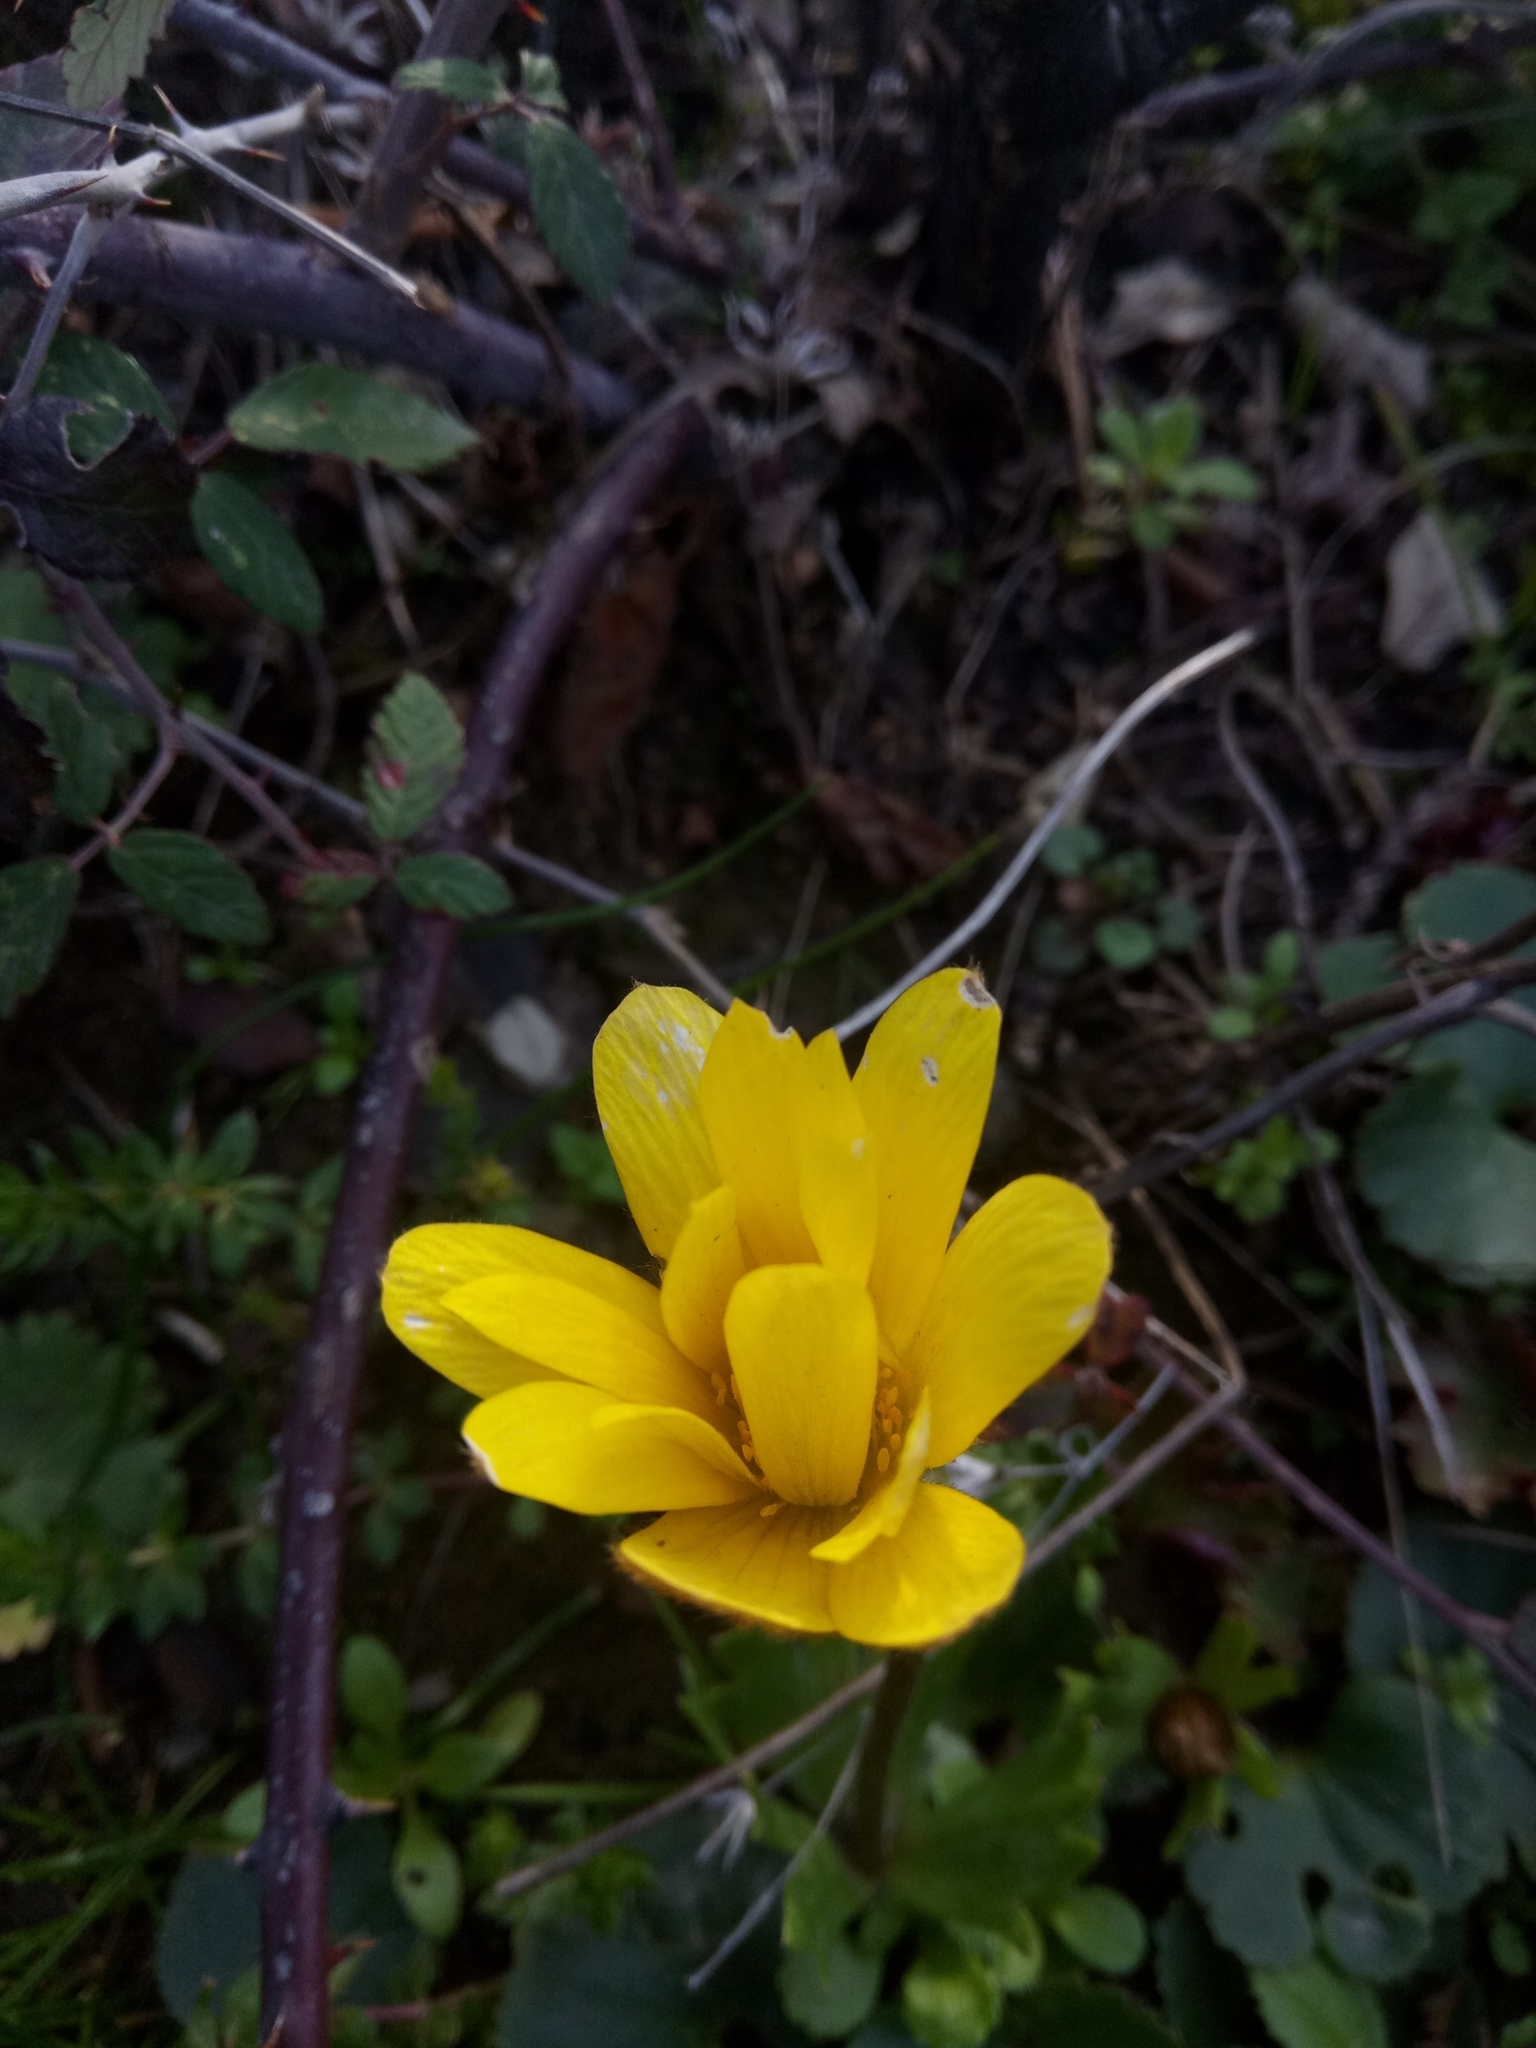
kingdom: Plantae
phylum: Tracheophyta
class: Magnoliopsida
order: Ranunculales
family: Ranunculaceae
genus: Anemone
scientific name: Anemone palmata
